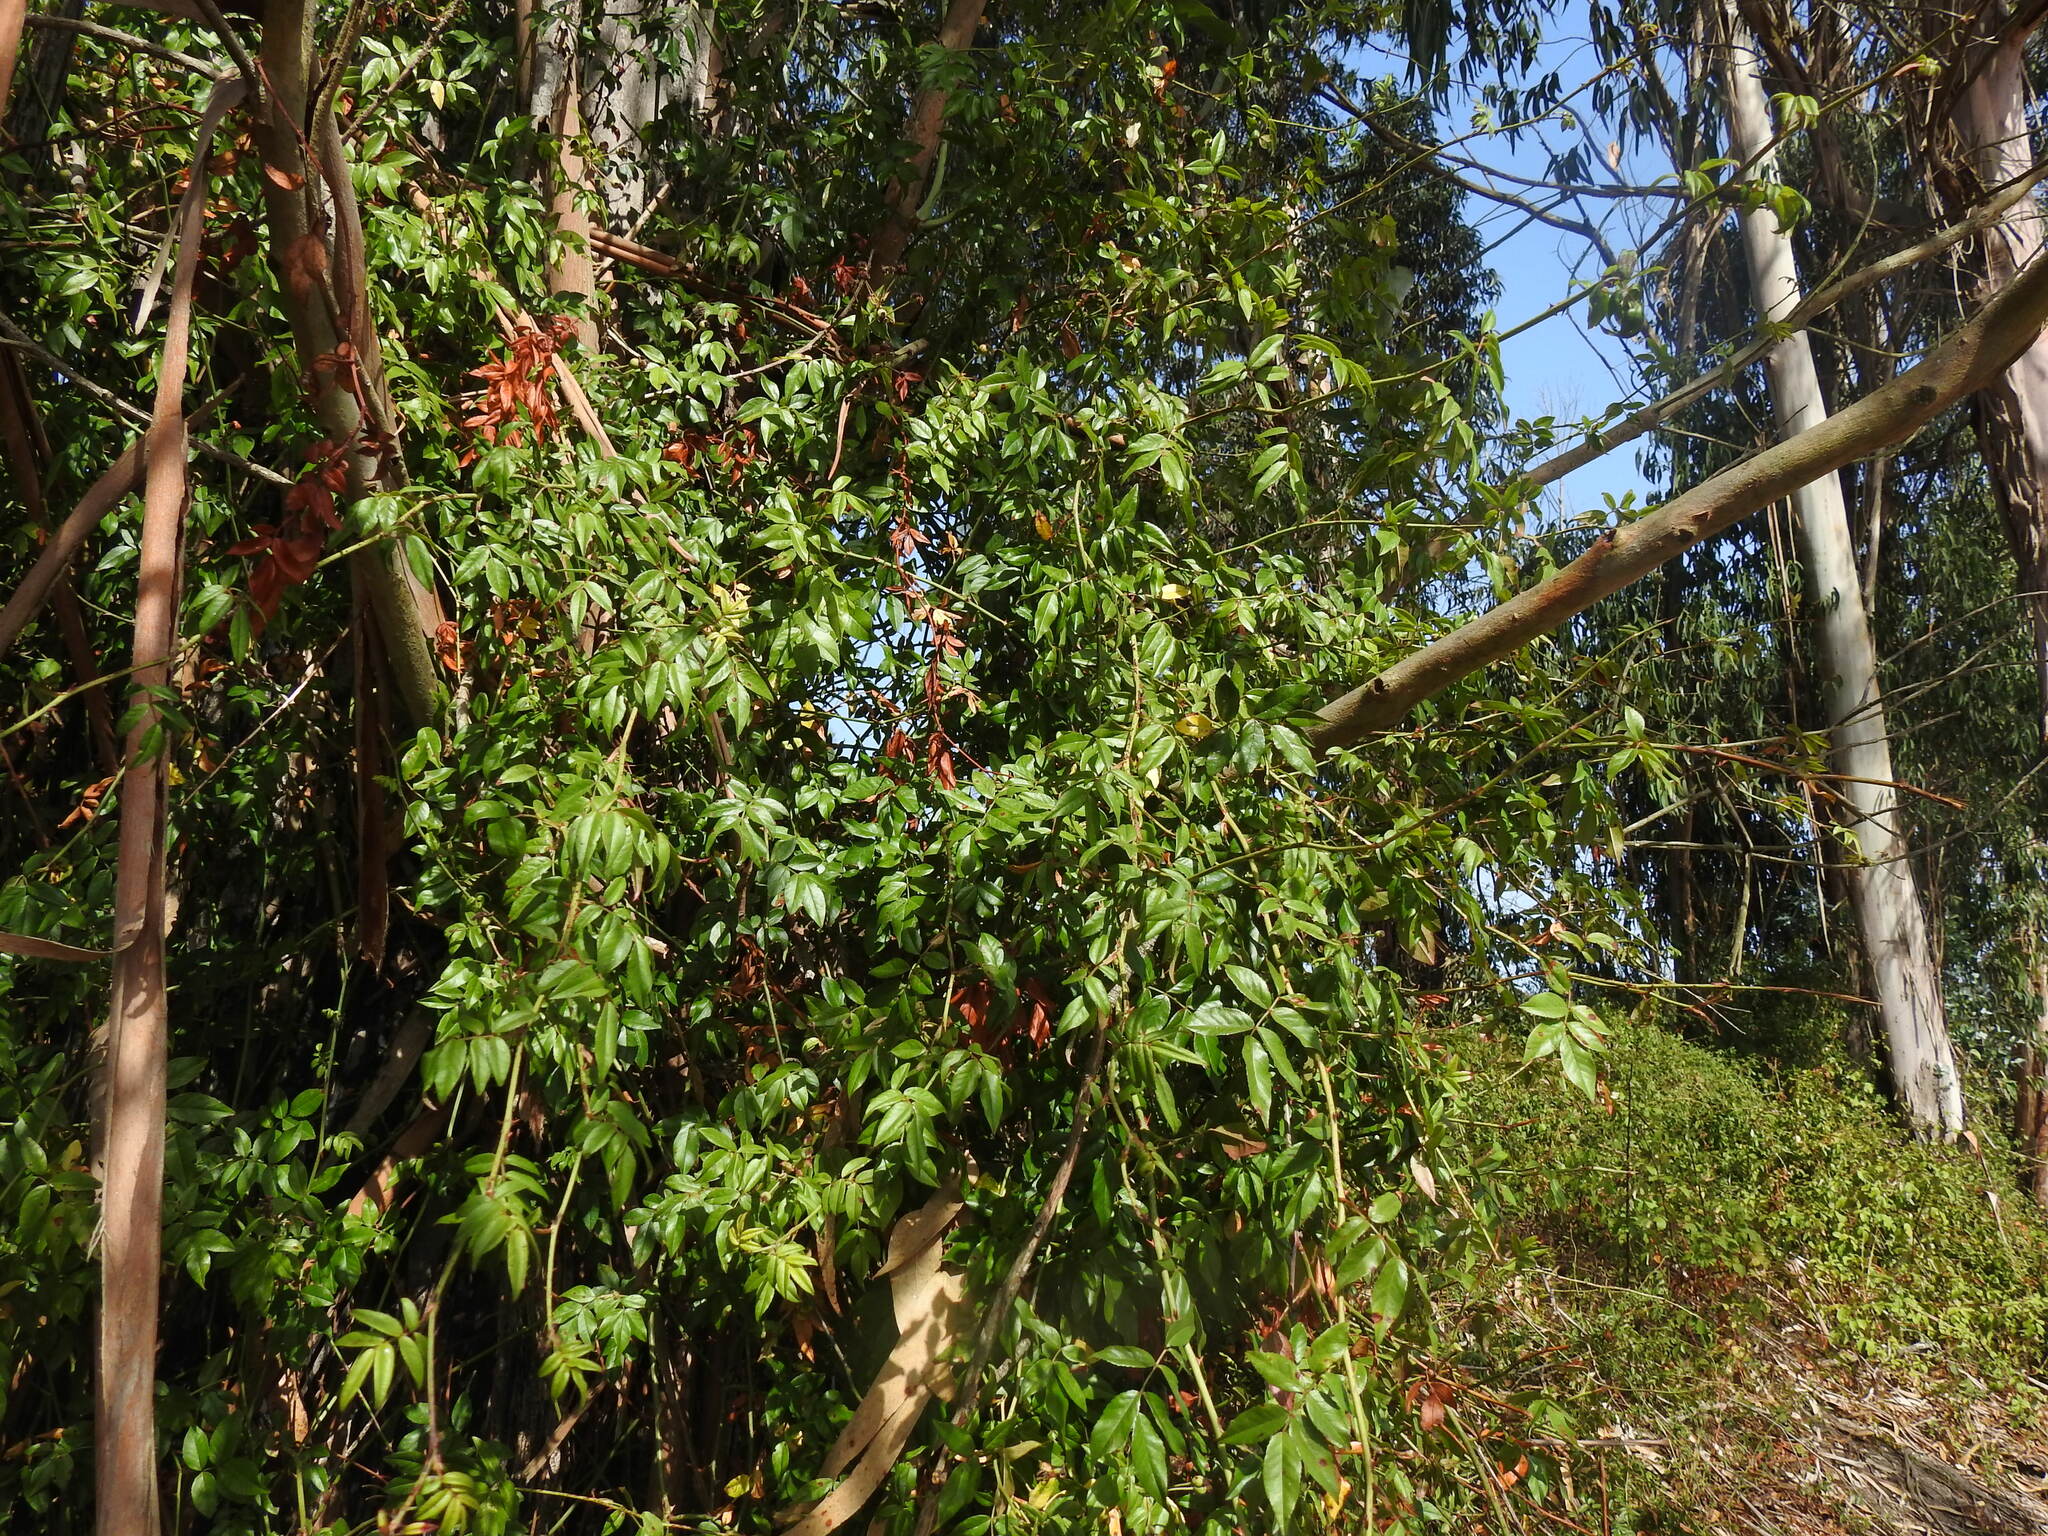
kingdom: Plantae
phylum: Tracheophyta
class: Magnoliopsida
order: Rosales
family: Rosaceae
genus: Rosa
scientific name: Rosa sempervirens
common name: Evergreen rose
